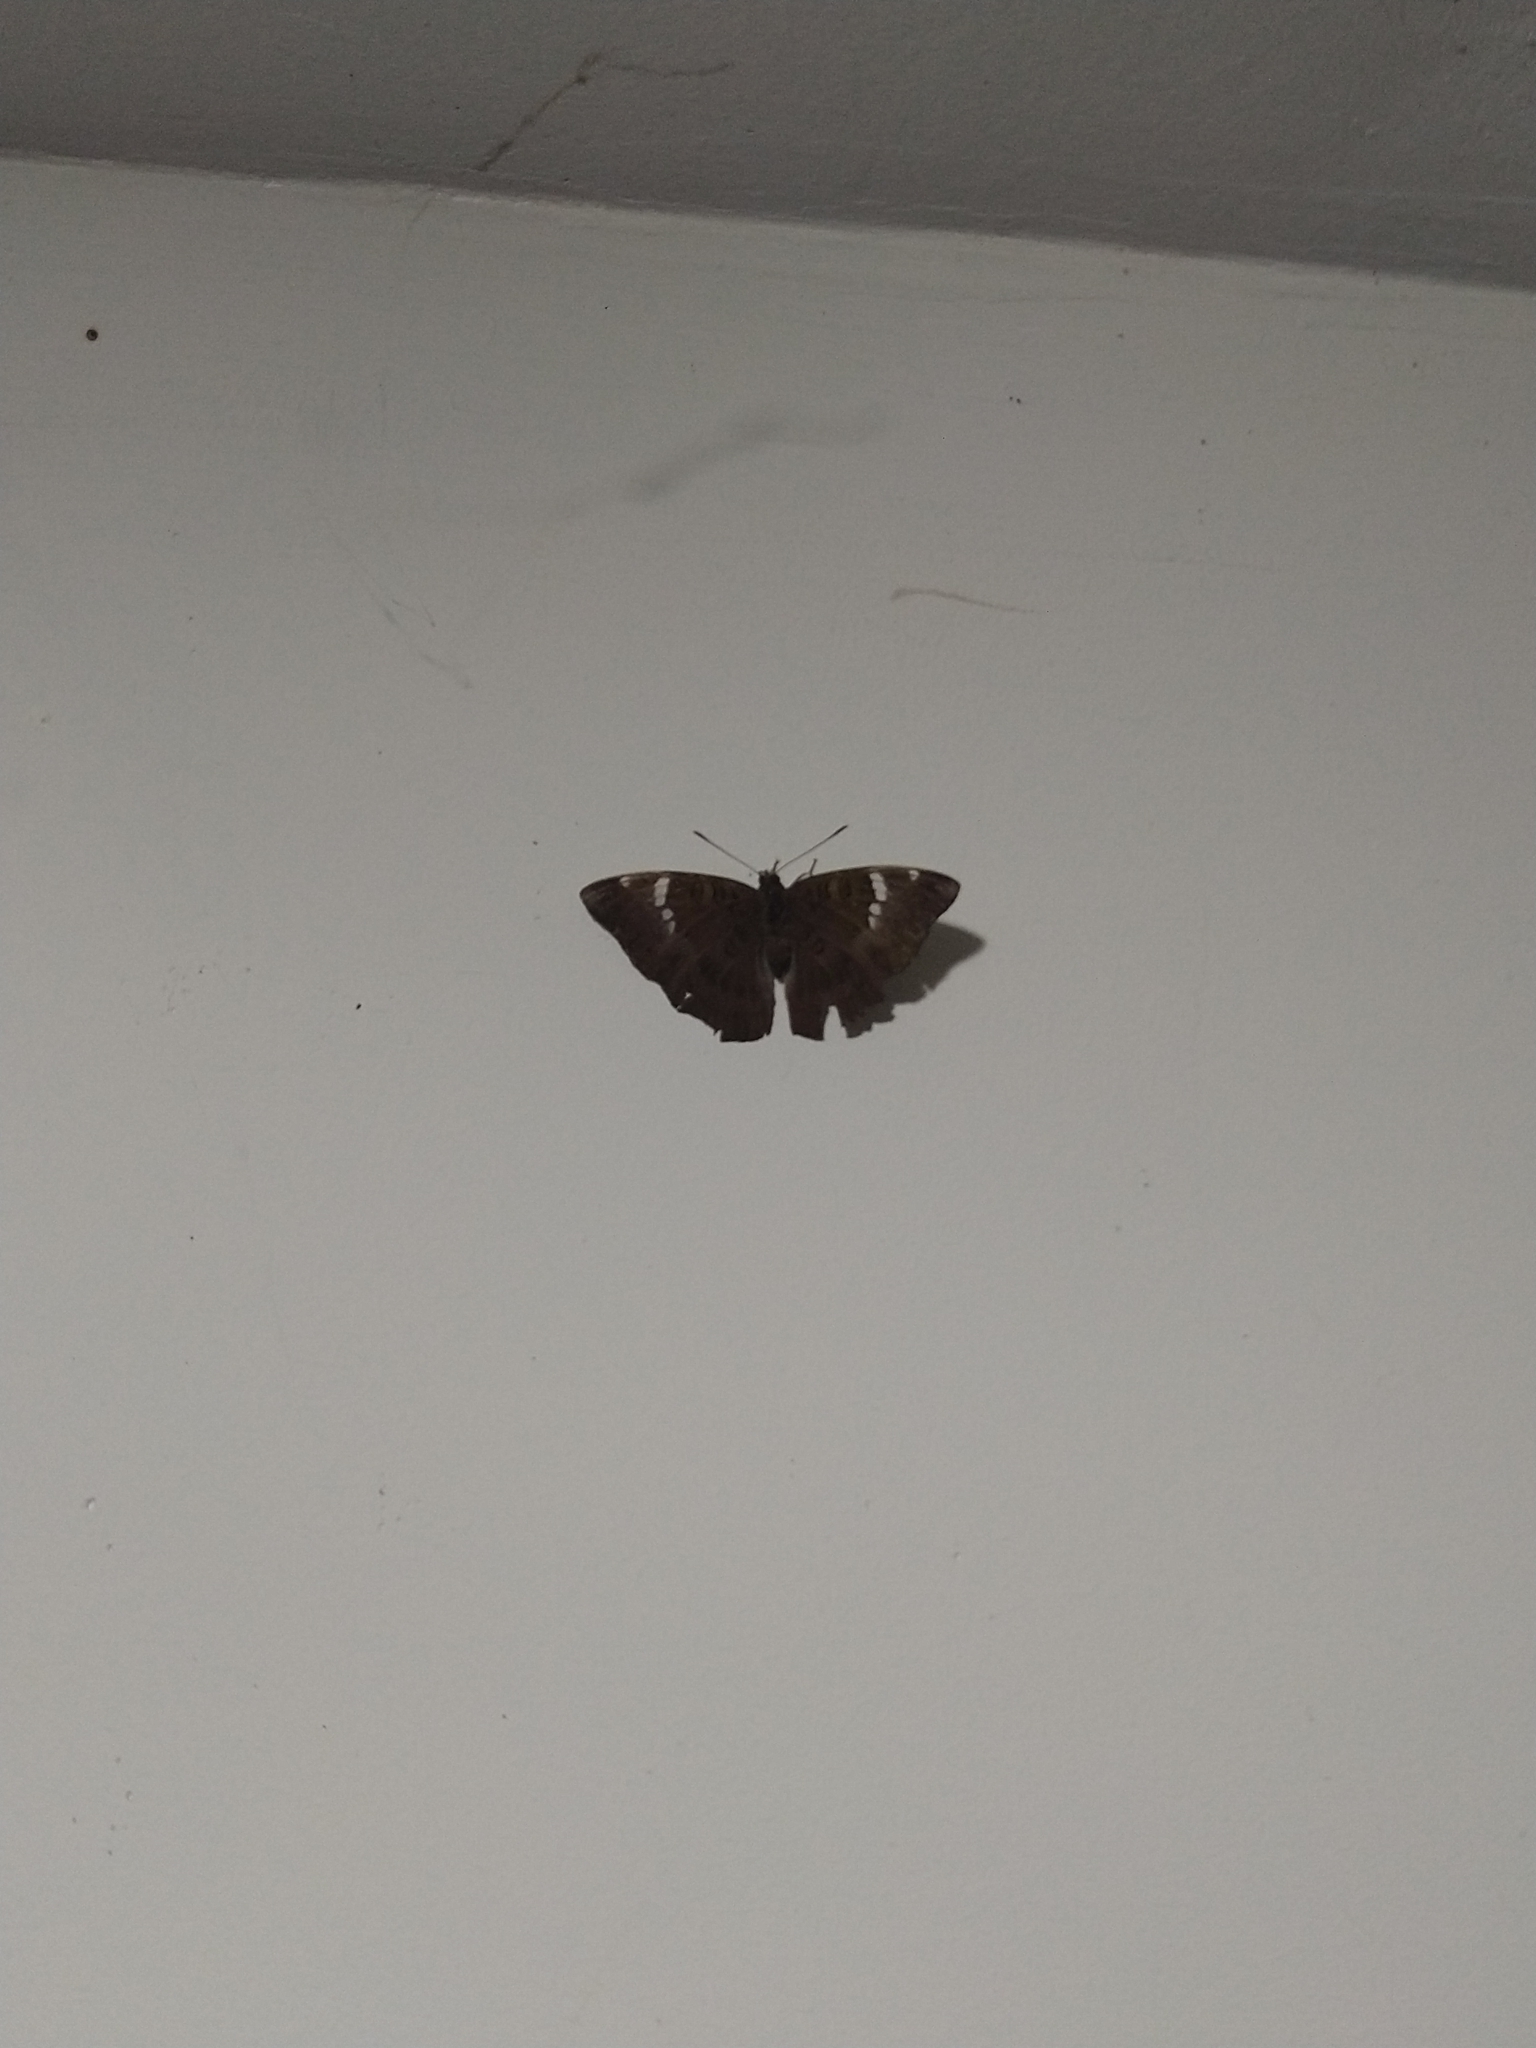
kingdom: Animalia
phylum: Arthropoda
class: Insecta
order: Lepidoptera
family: Nymphalidae
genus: Euthalia
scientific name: Euthalia aconthea
